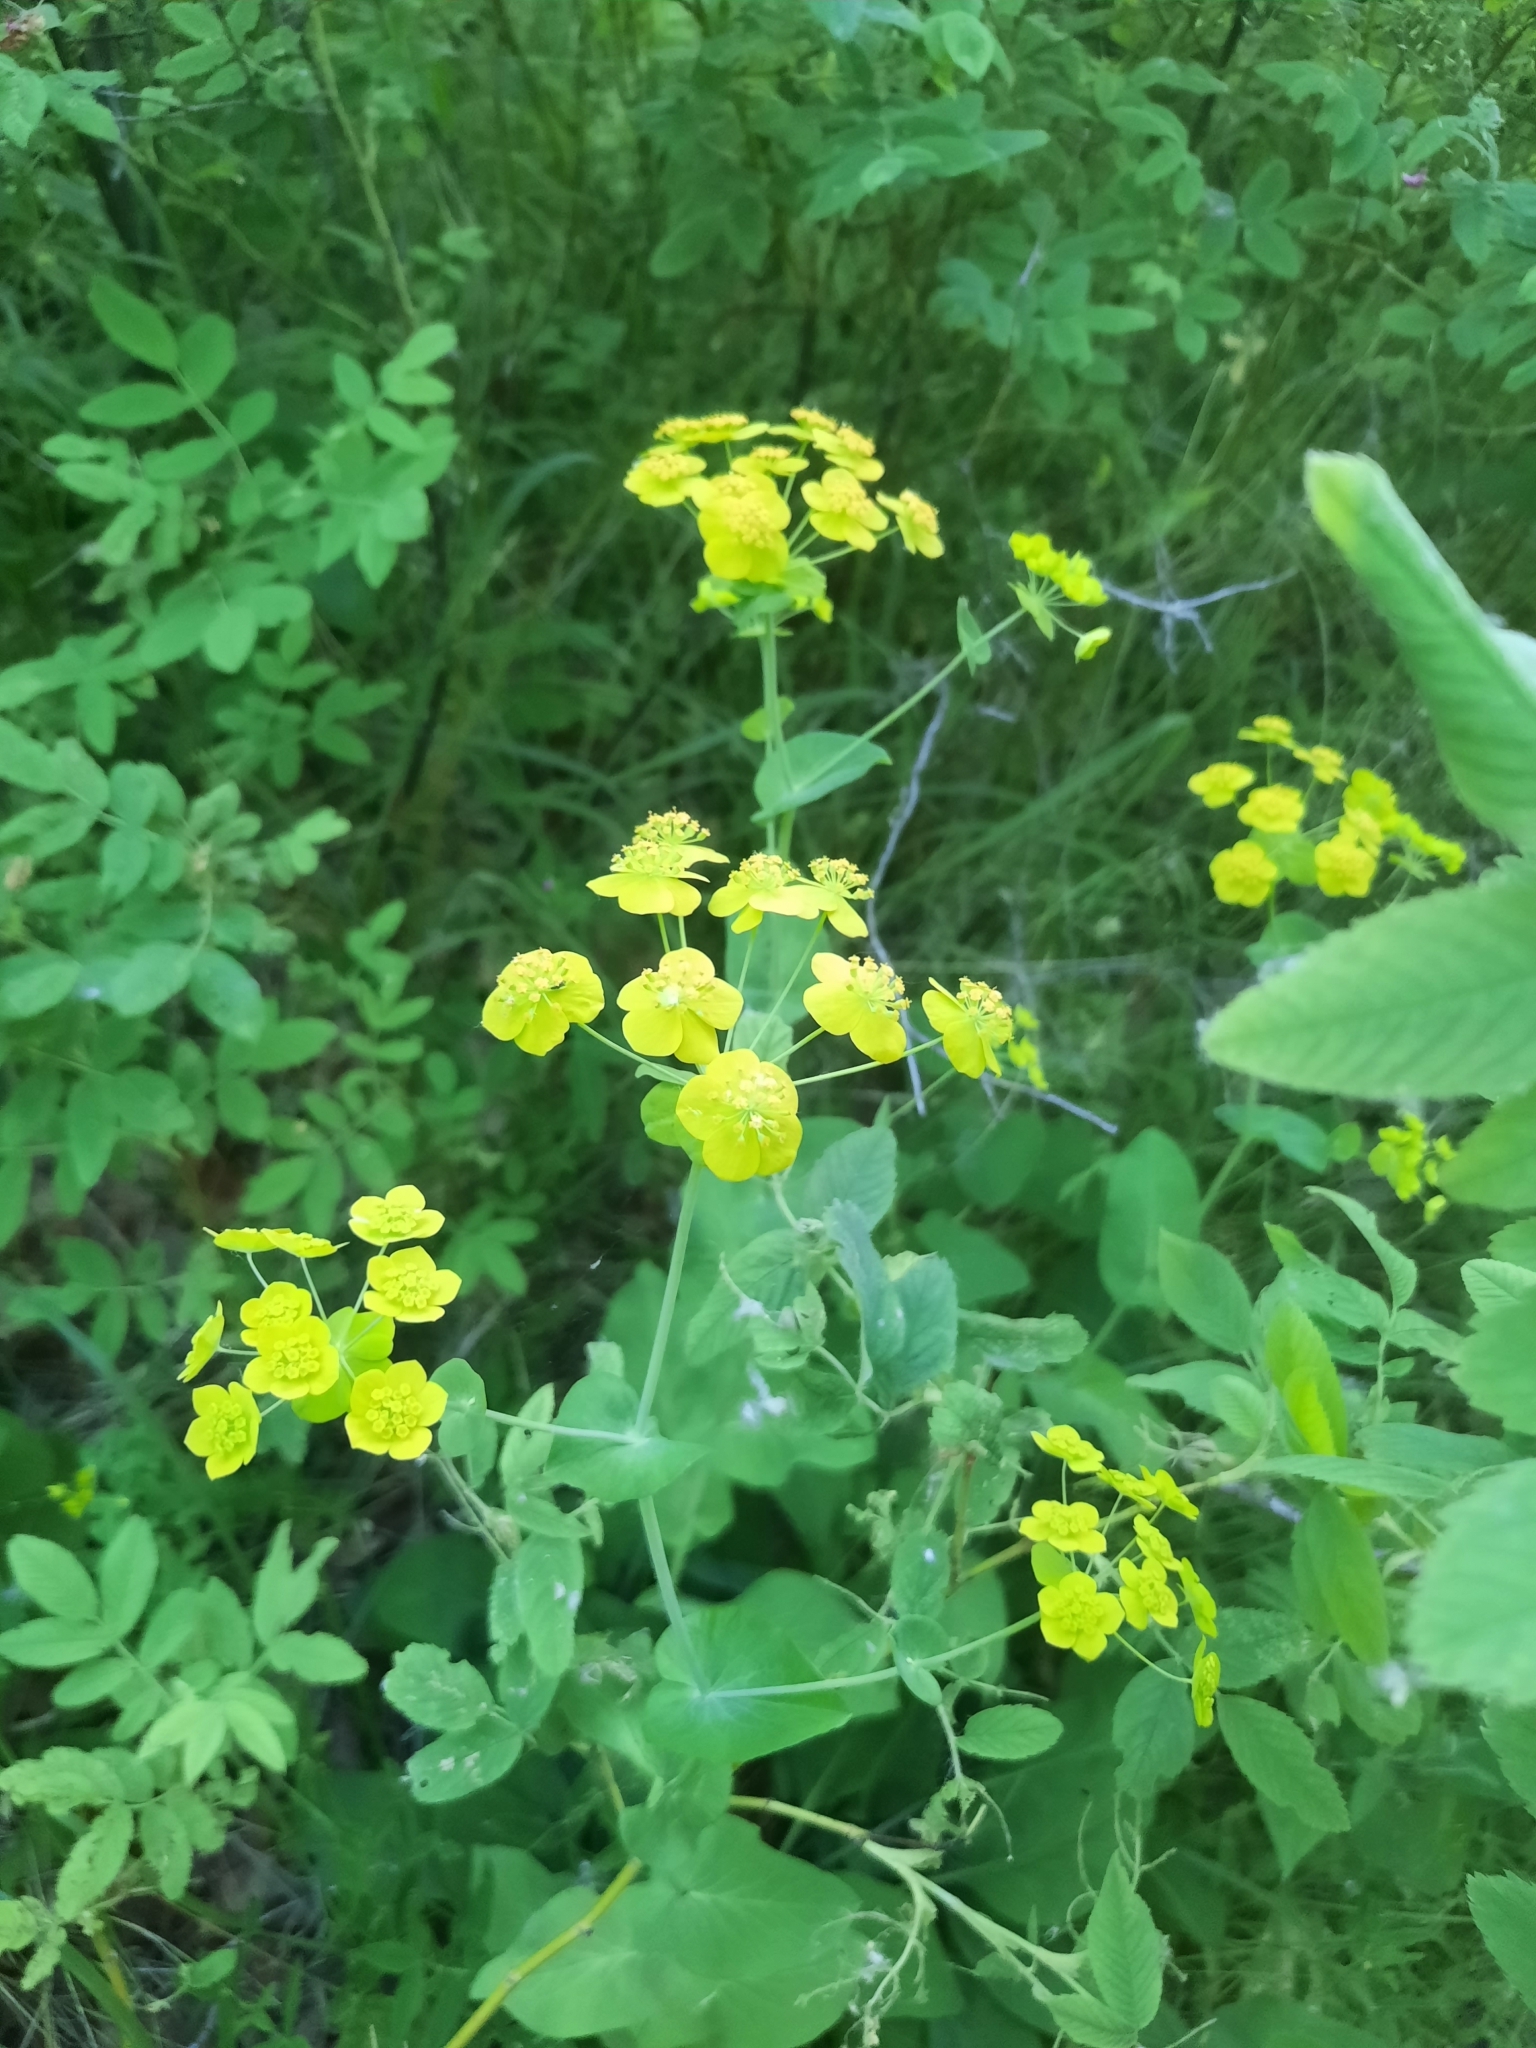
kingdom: Plantae
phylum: Tracheophyta
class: Magnoliopsida
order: Apiales
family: Apiaceae
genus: Bupleurum
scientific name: Bupleurum aureum
